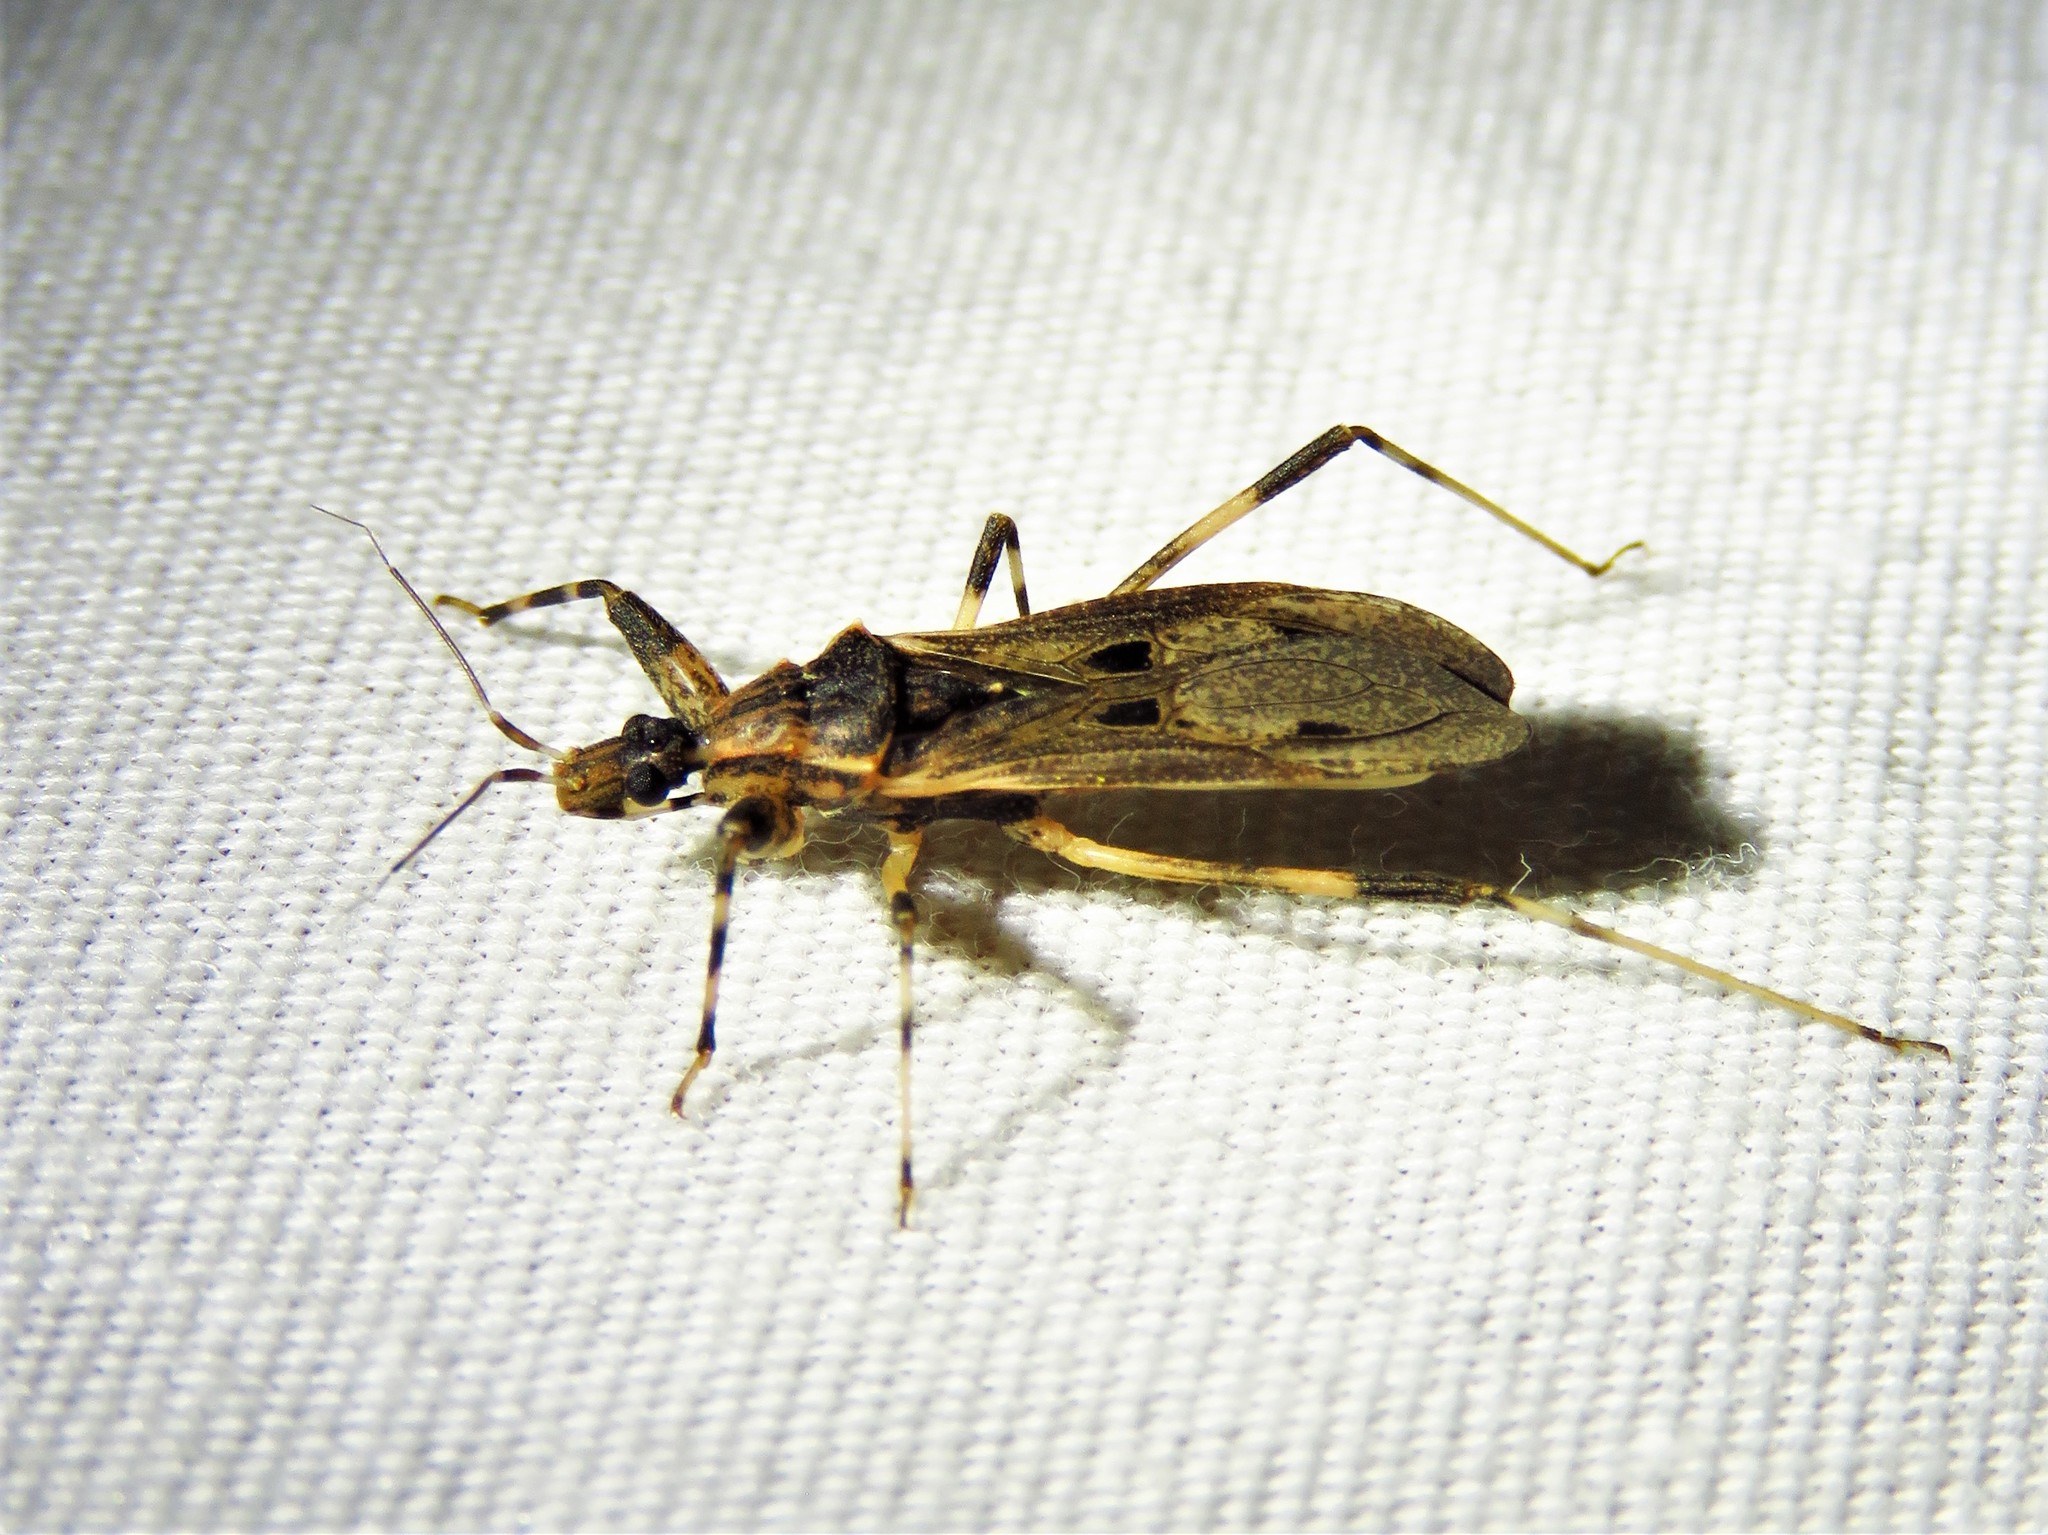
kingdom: Animalia
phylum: Arthropoda
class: Insecta
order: Hemiptera
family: Reduviidae
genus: Oncocephalus
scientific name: Oncocephalus geniculatus
